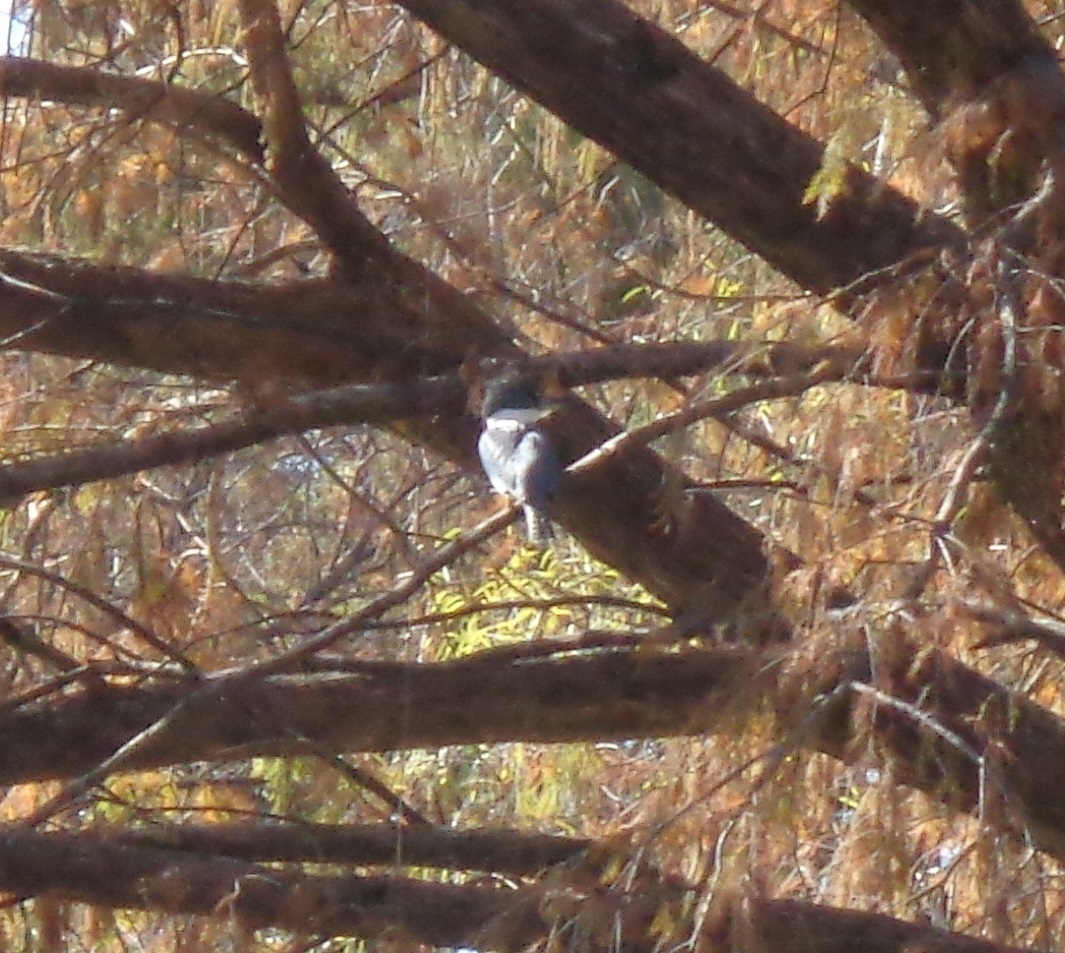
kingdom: Animalia
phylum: Chordata
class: Aves
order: Coraciiformes
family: Alcedinidae
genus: Megaceryle
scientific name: Megaceryle alcyon
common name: Belted kingfisher
